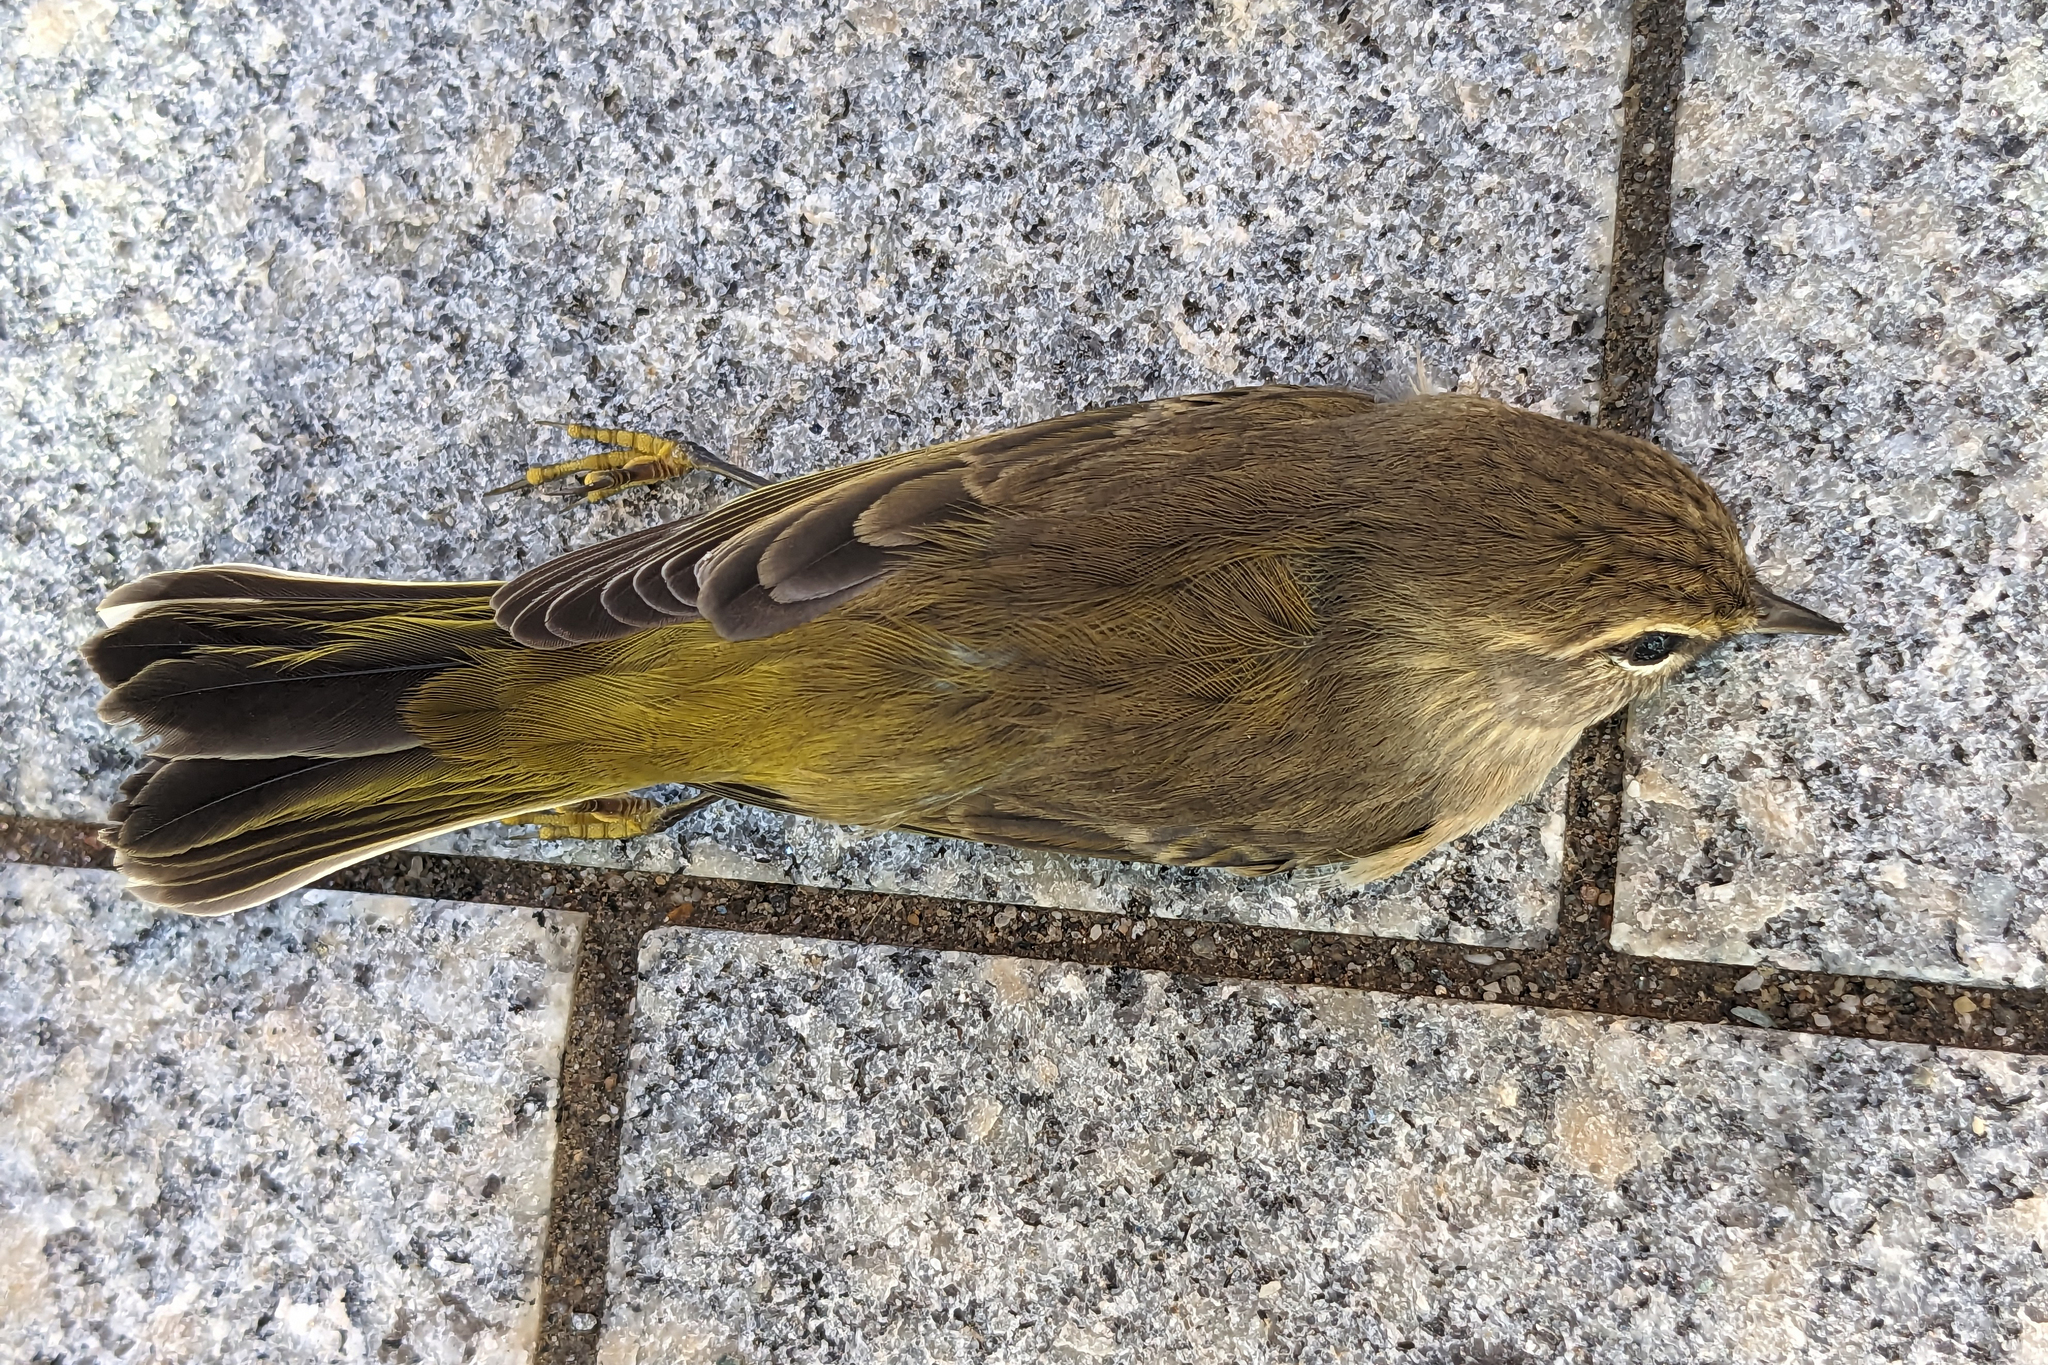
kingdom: Animalia
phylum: Chordata
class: Aves
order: Passeriformes
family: Parulidae
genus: Setophaga
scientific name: Setophaga palmarum
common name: Palm warbler
